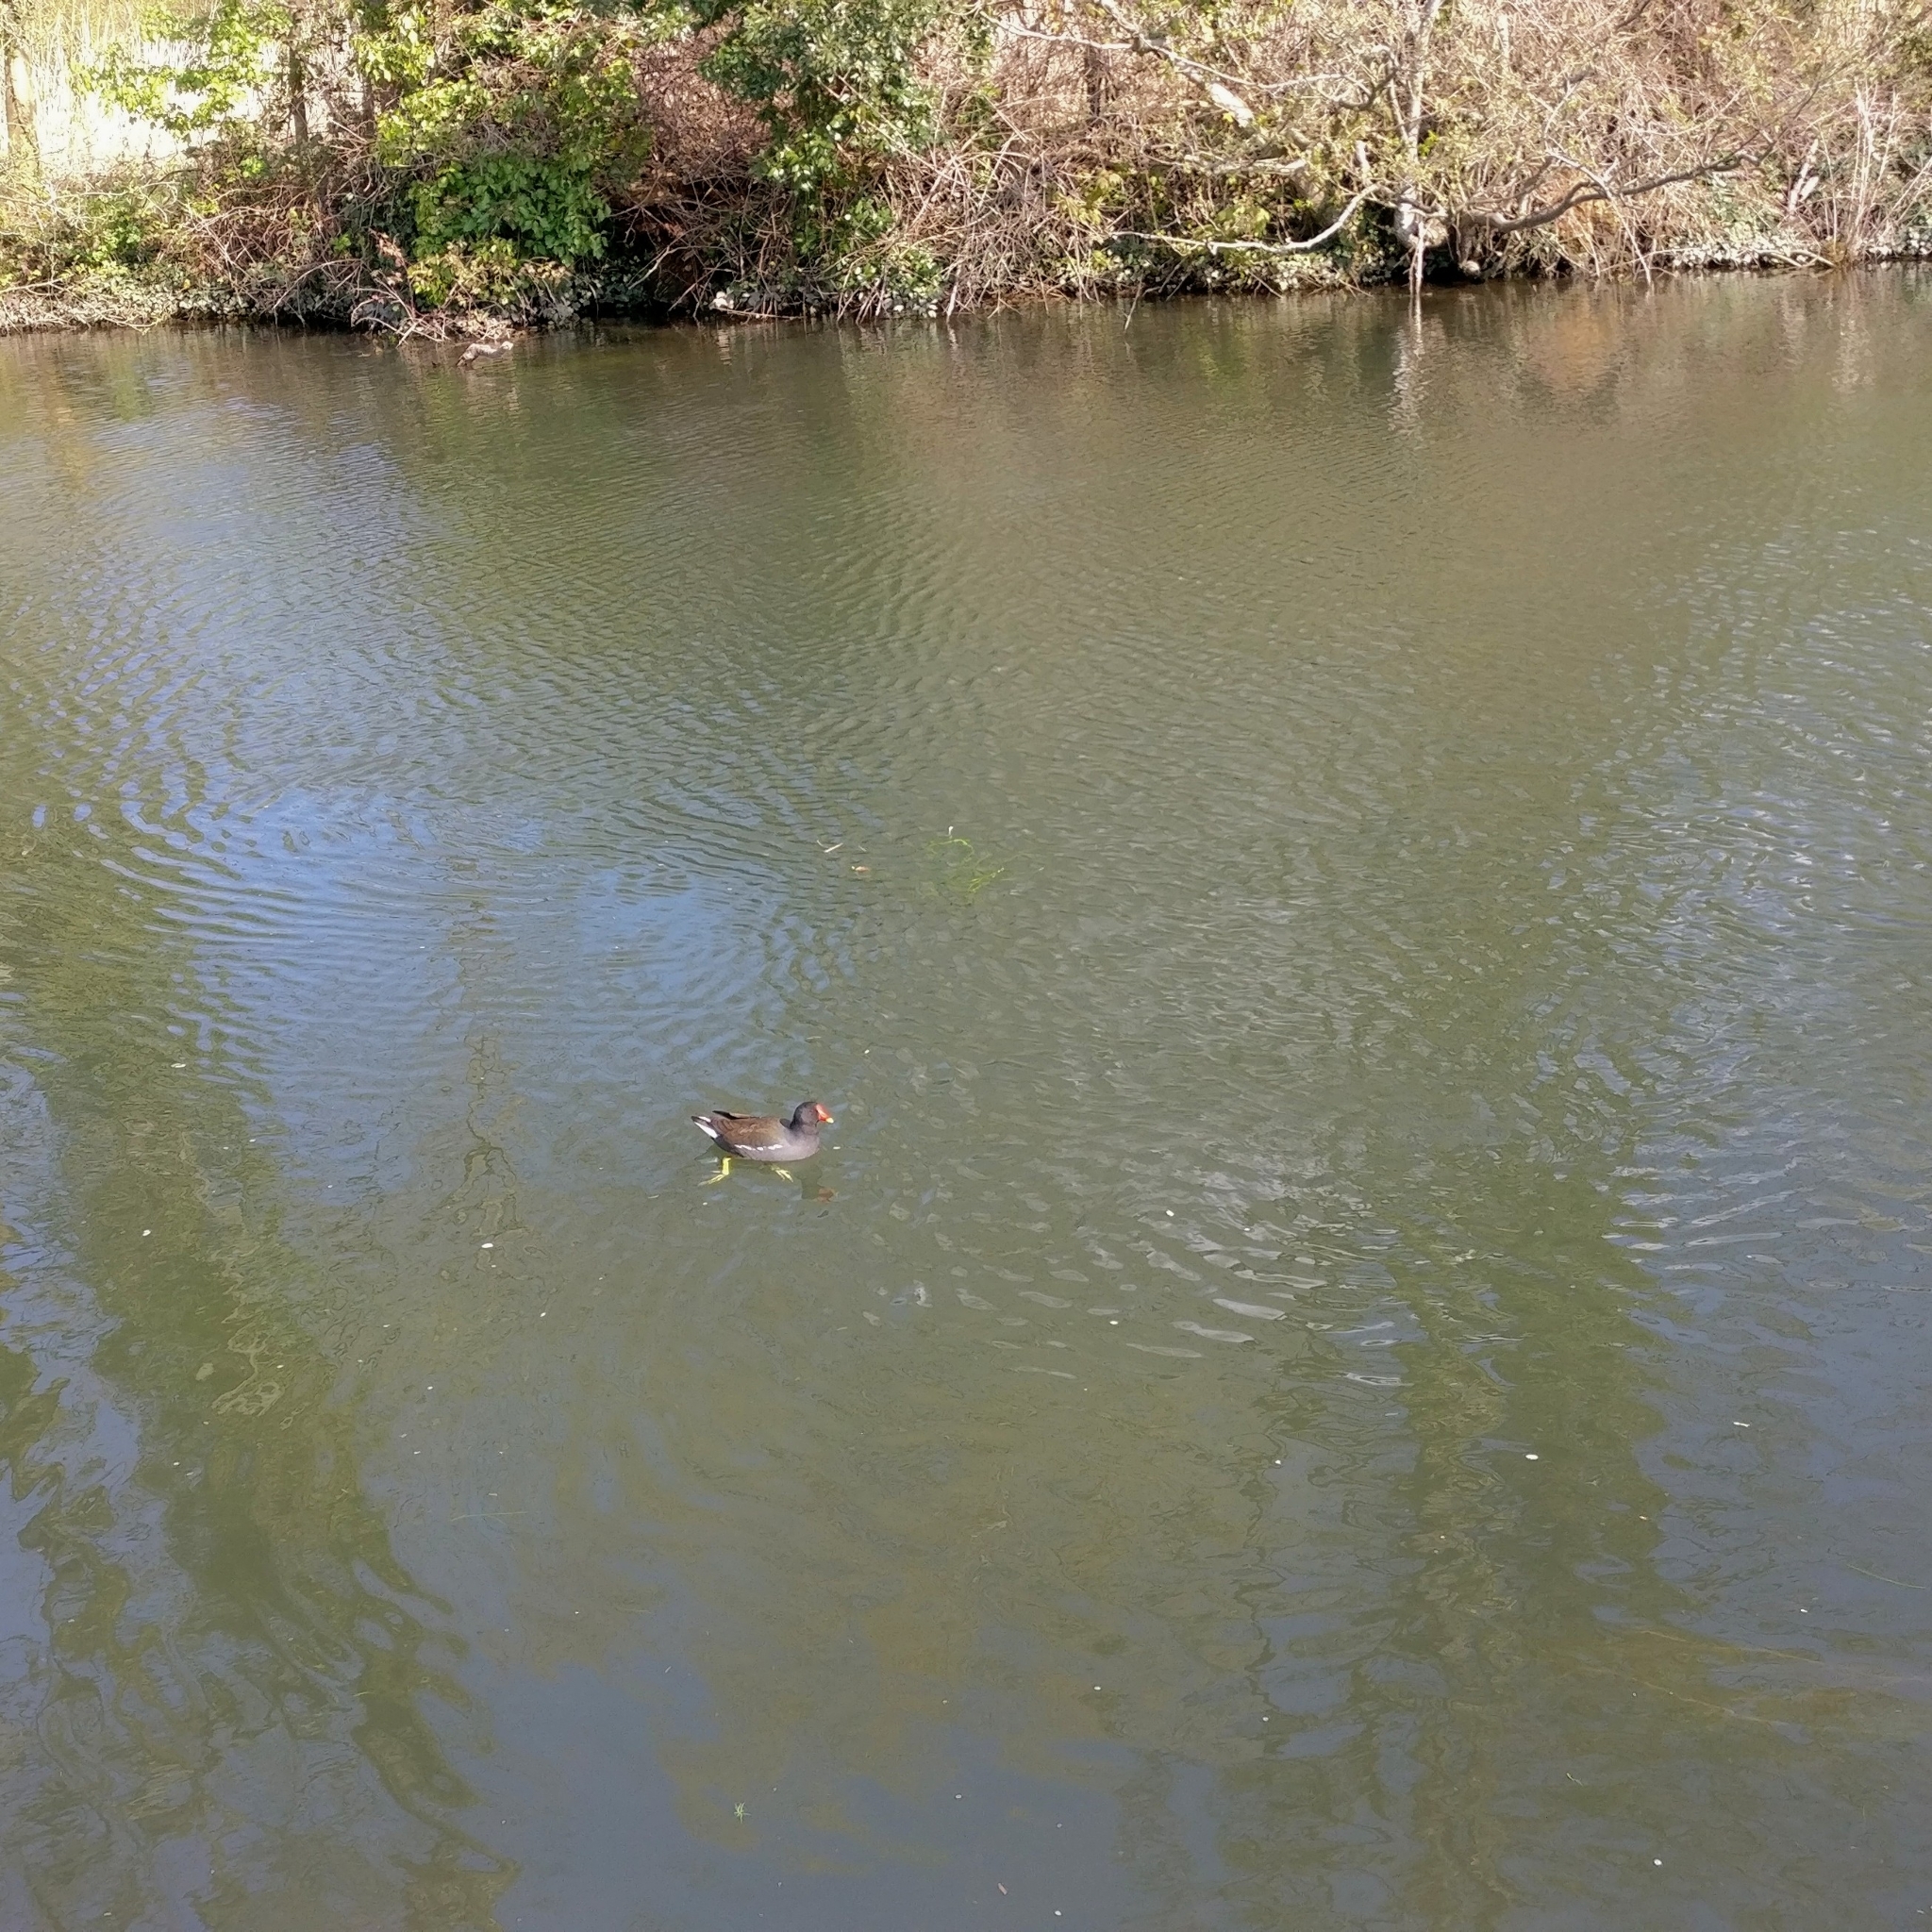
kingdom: Animalia
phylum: Chordata
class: Aves
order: Gruiformes
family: Rallidae
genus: Gallinula
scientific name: Gallinula chloropus
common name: Common moorhen
